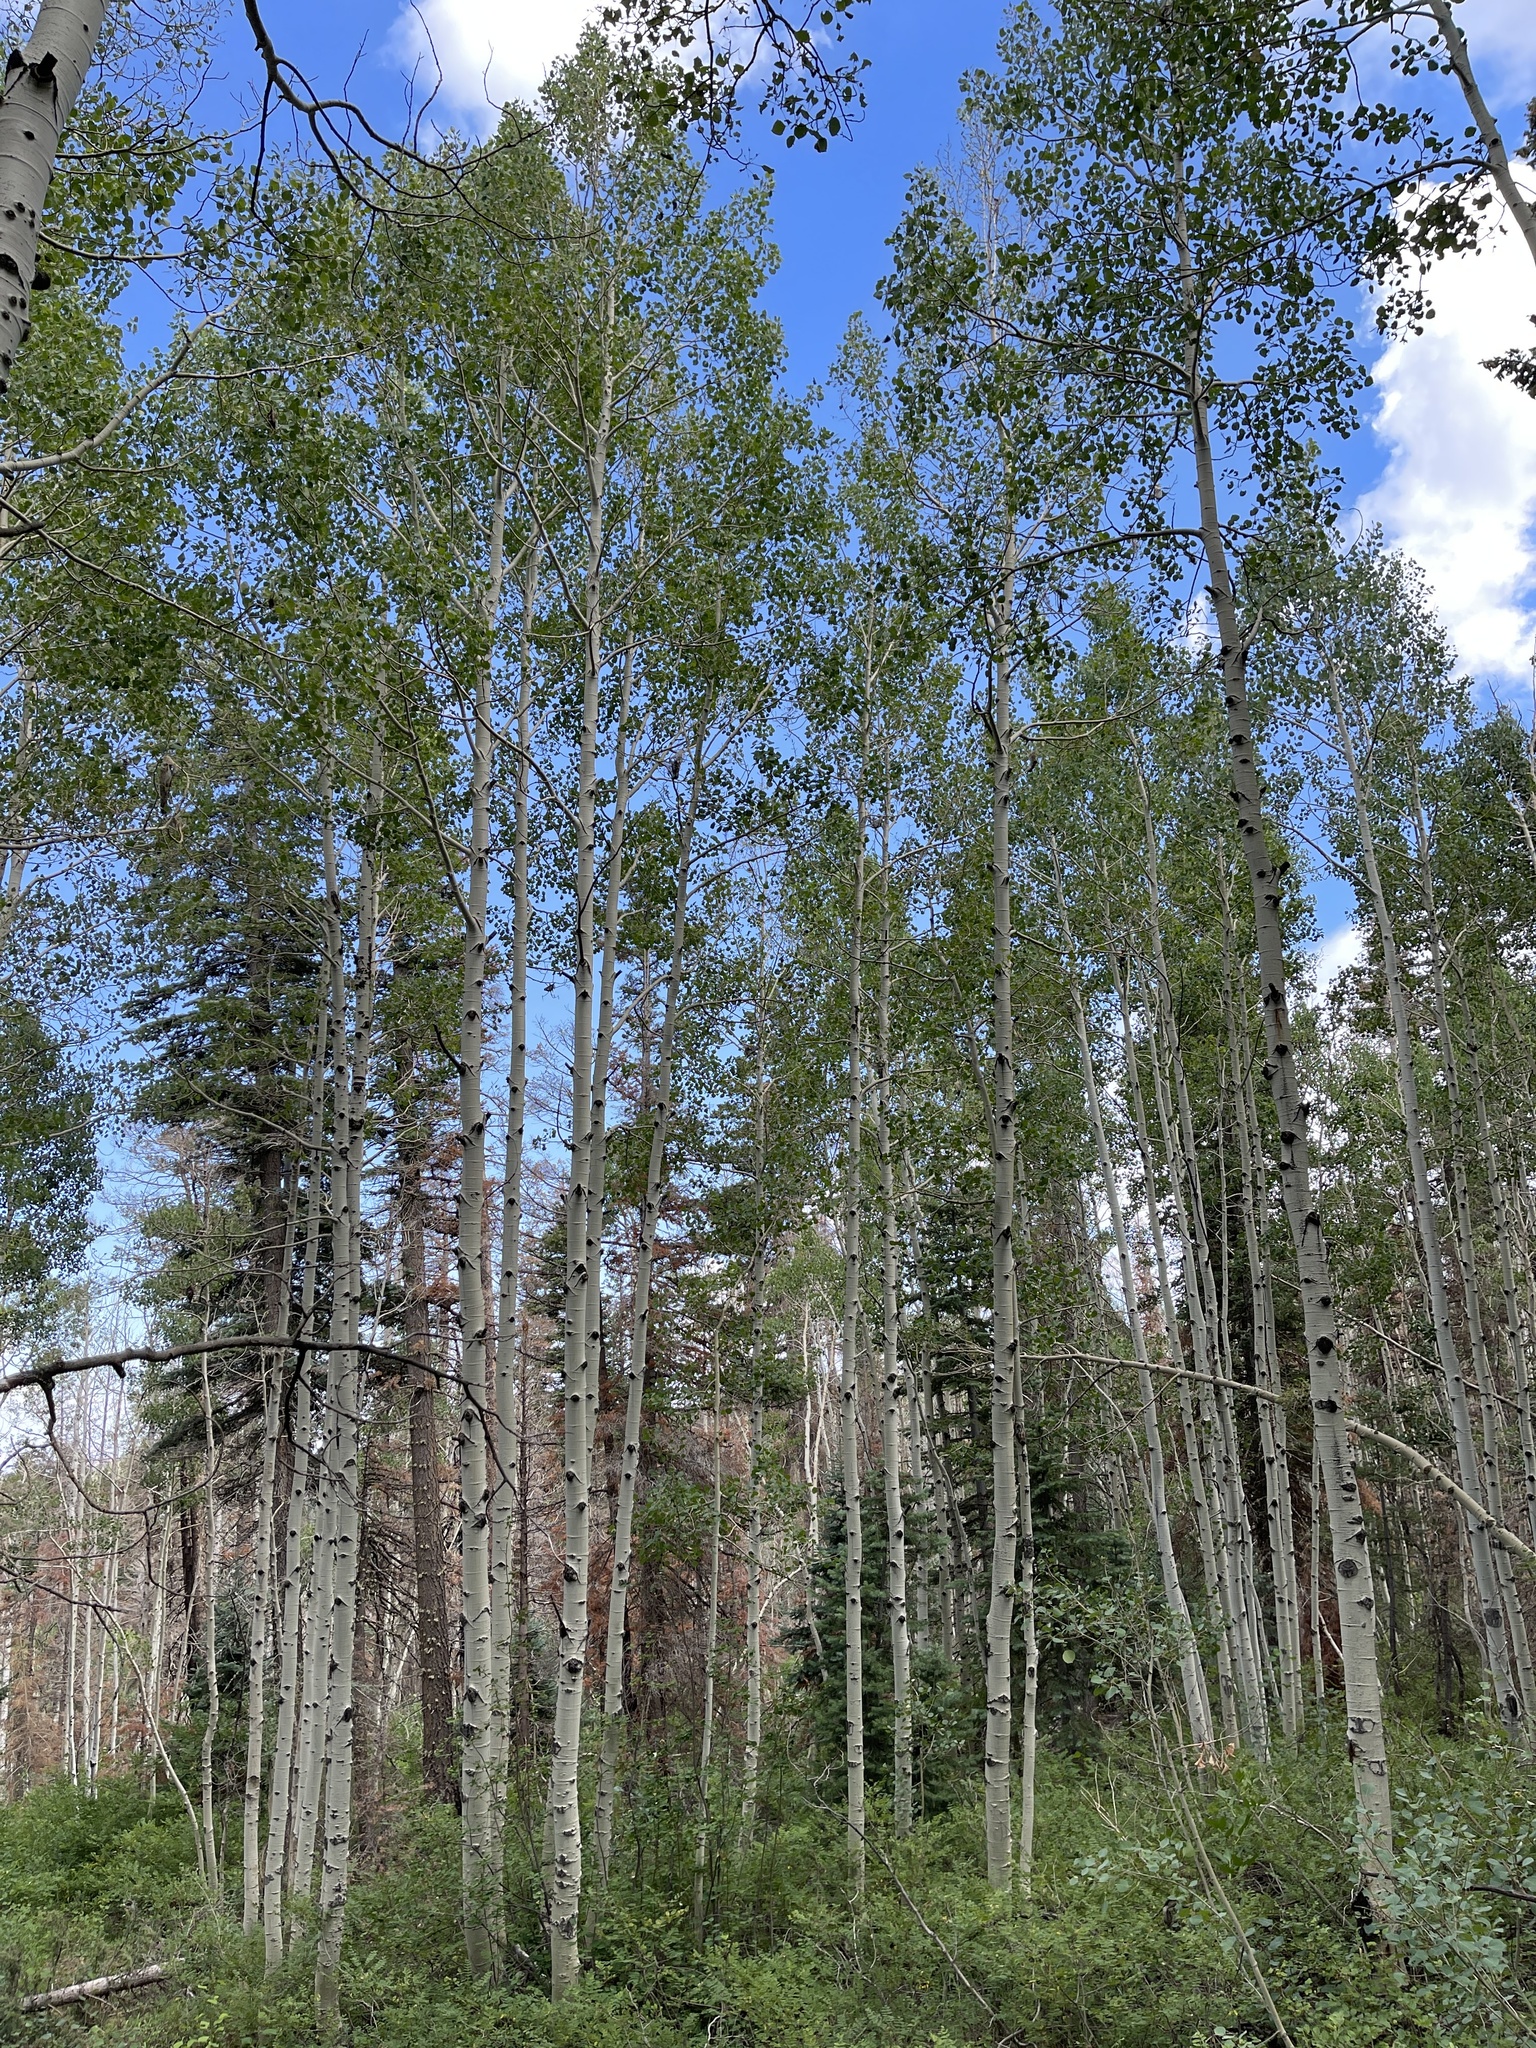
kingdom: Plantae
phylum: Tracheophyta
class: Magnoliopsida
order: Malpighiales
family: Salicaceae
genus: Populus
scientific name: Populus tremuloides
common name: Quaking aspen
